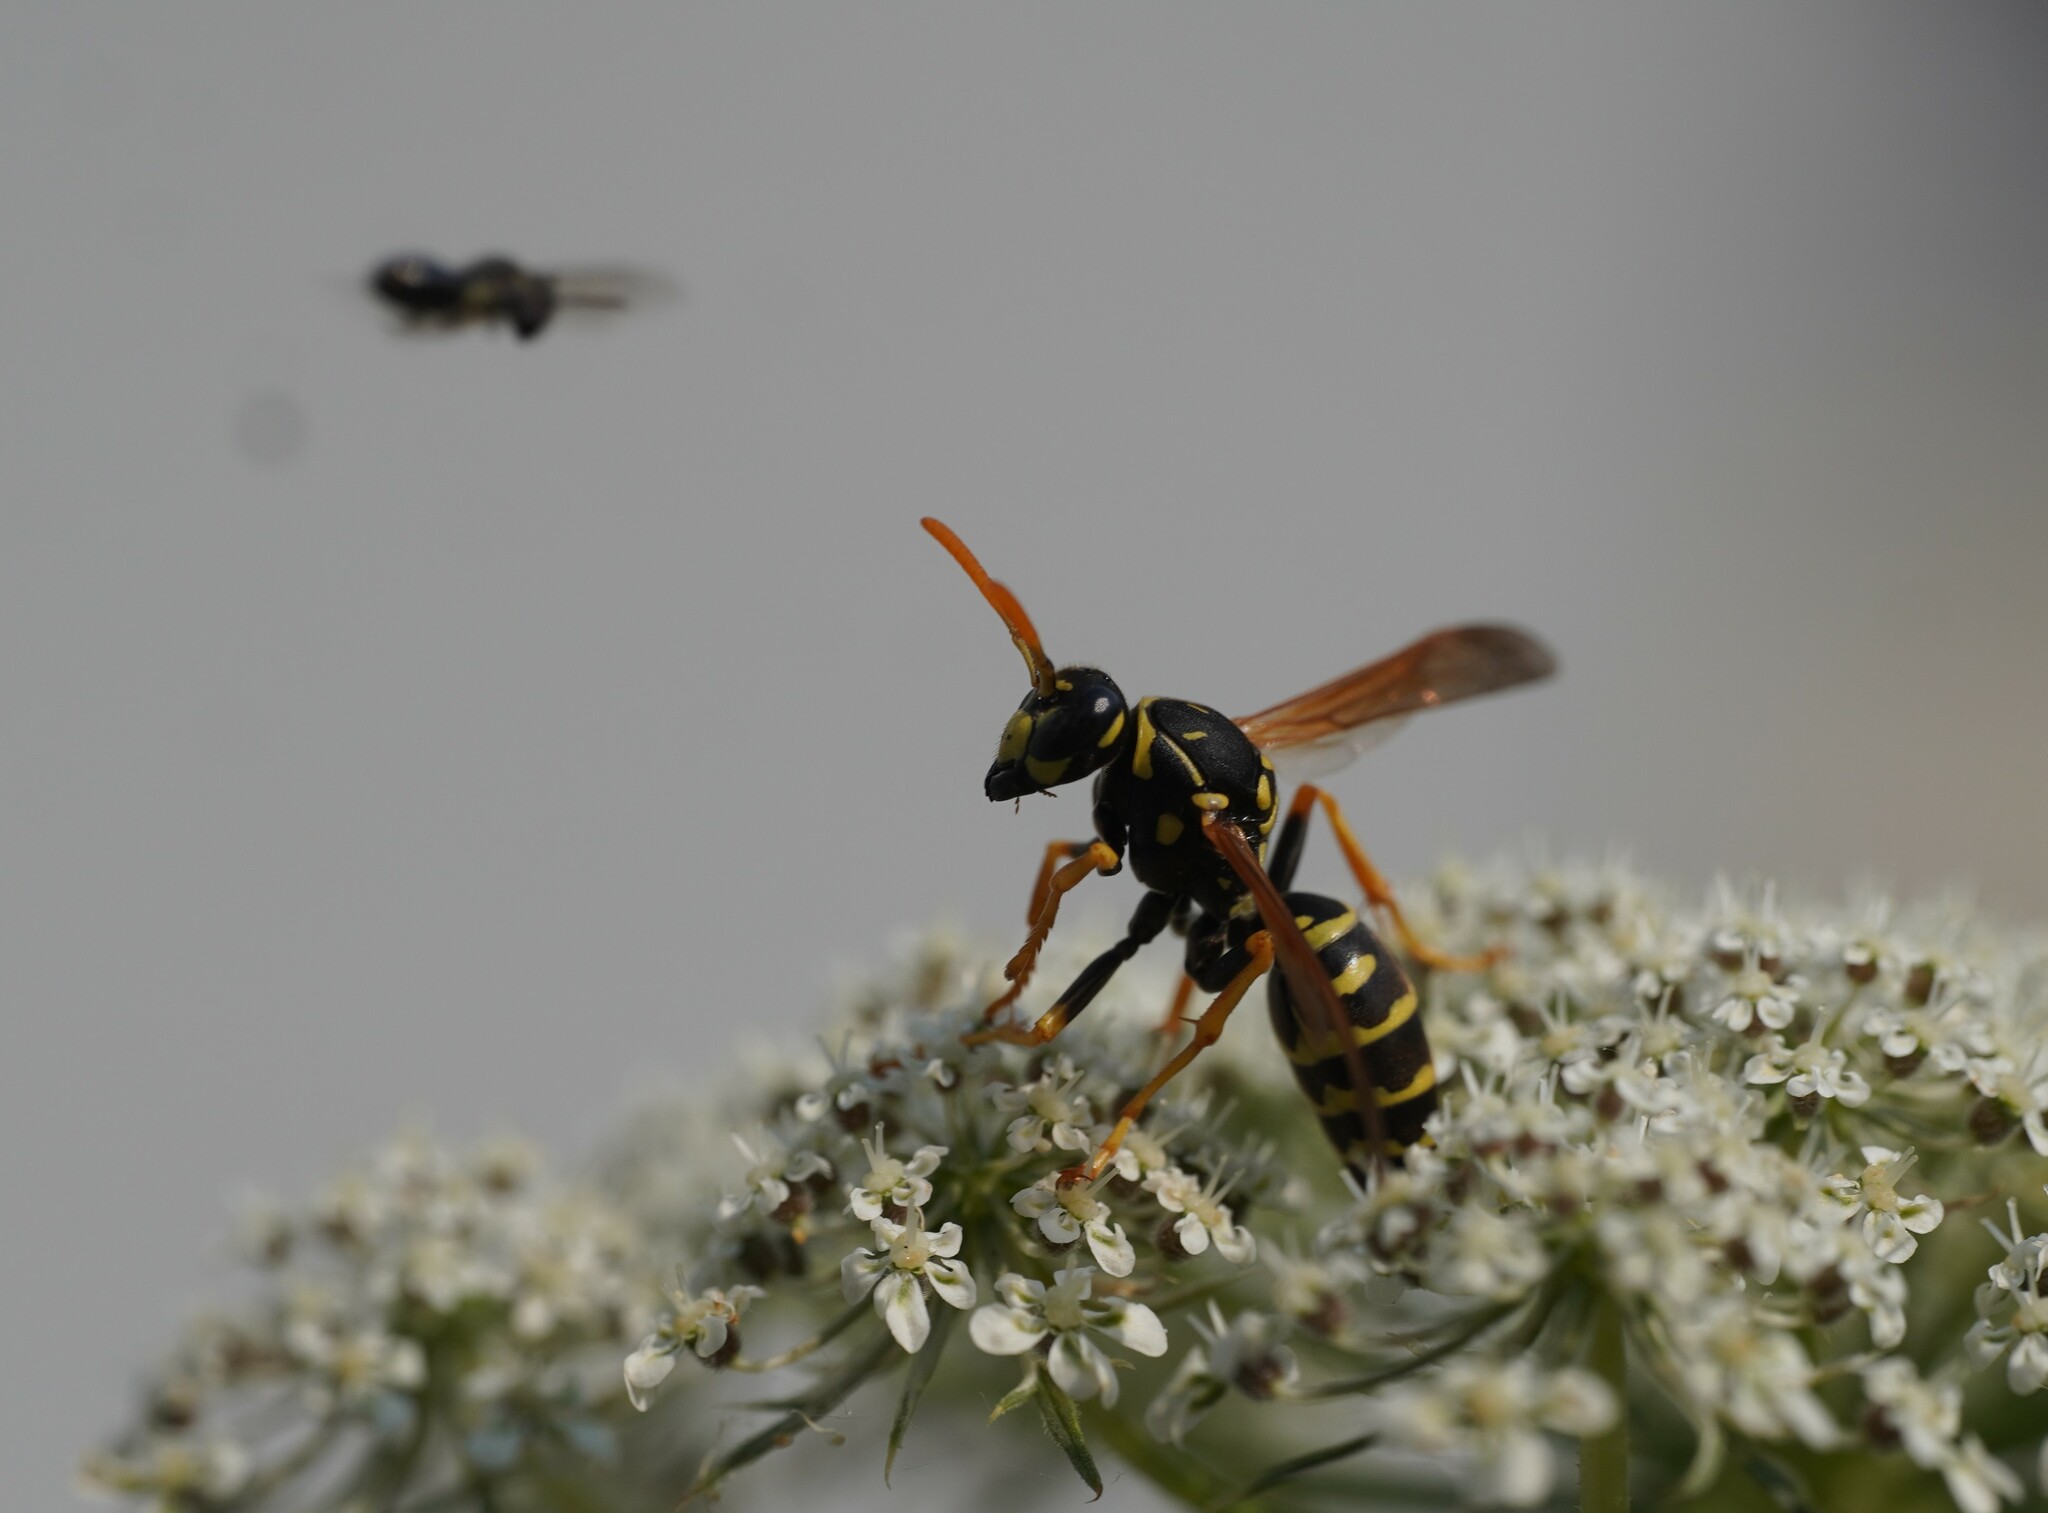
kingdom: Animalia
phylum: Arthropoda
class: Insecta
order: Hymenoptera
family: Eumenidae
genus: Polistes
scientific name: Polistes dominula
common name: Paper wasp
